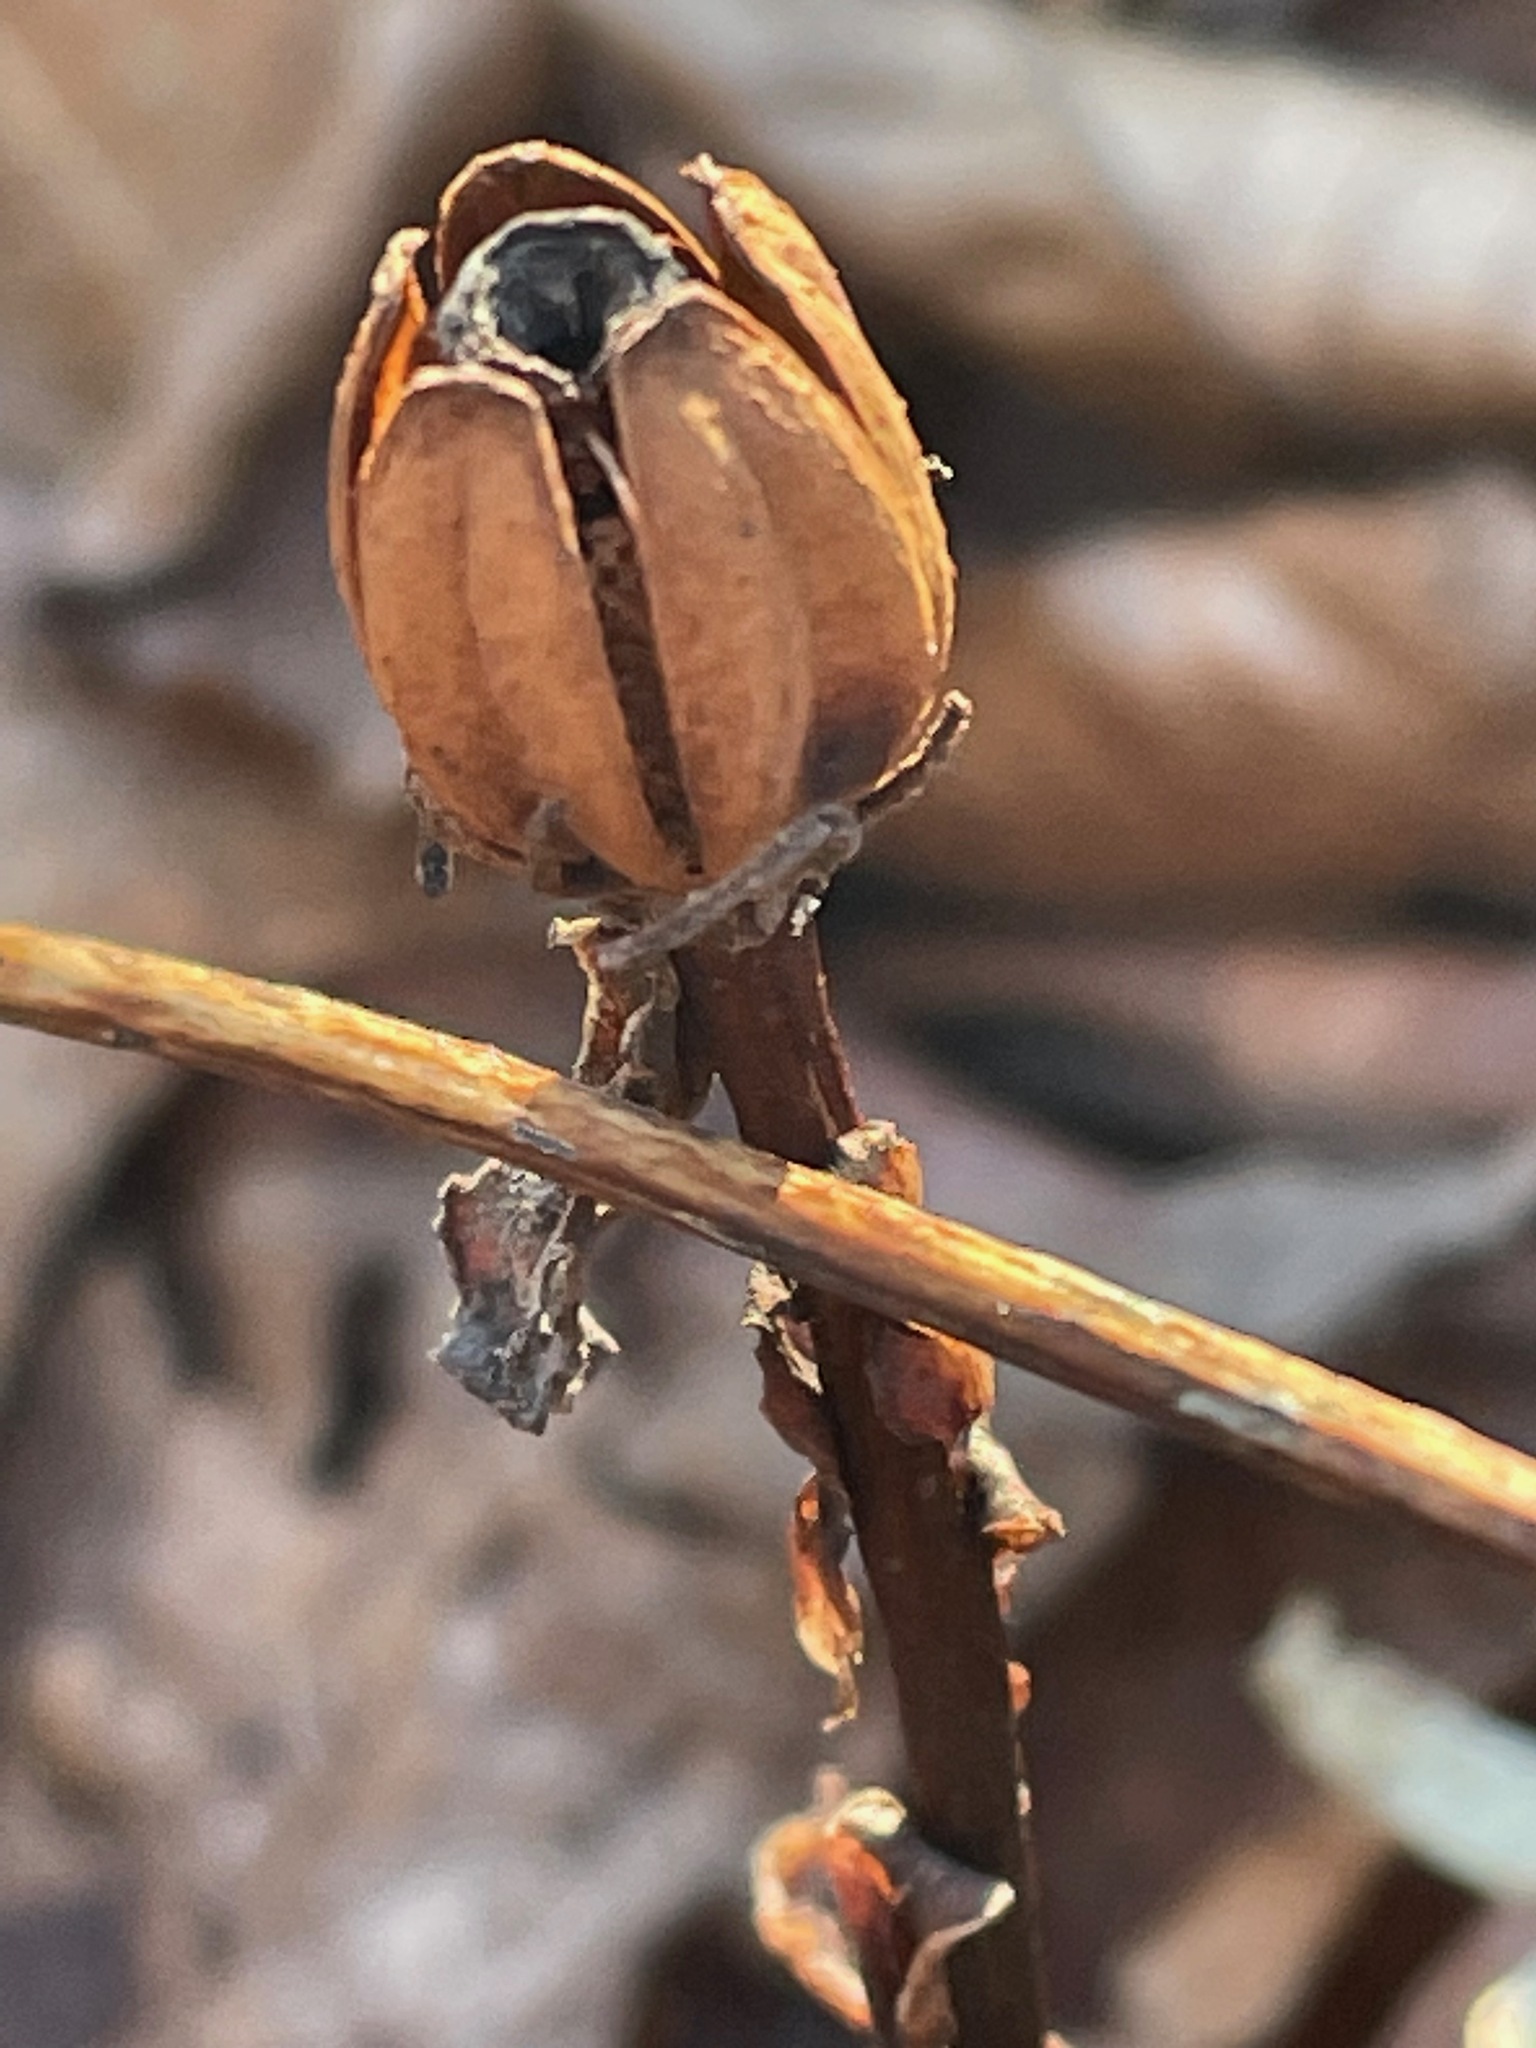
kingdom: Plantae
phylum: Tracheophyta
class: Magnoliopsida
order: Ericales
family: Ericaceae
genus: Monotropa
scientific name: Monotropa uniflora
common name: Convulsion root
